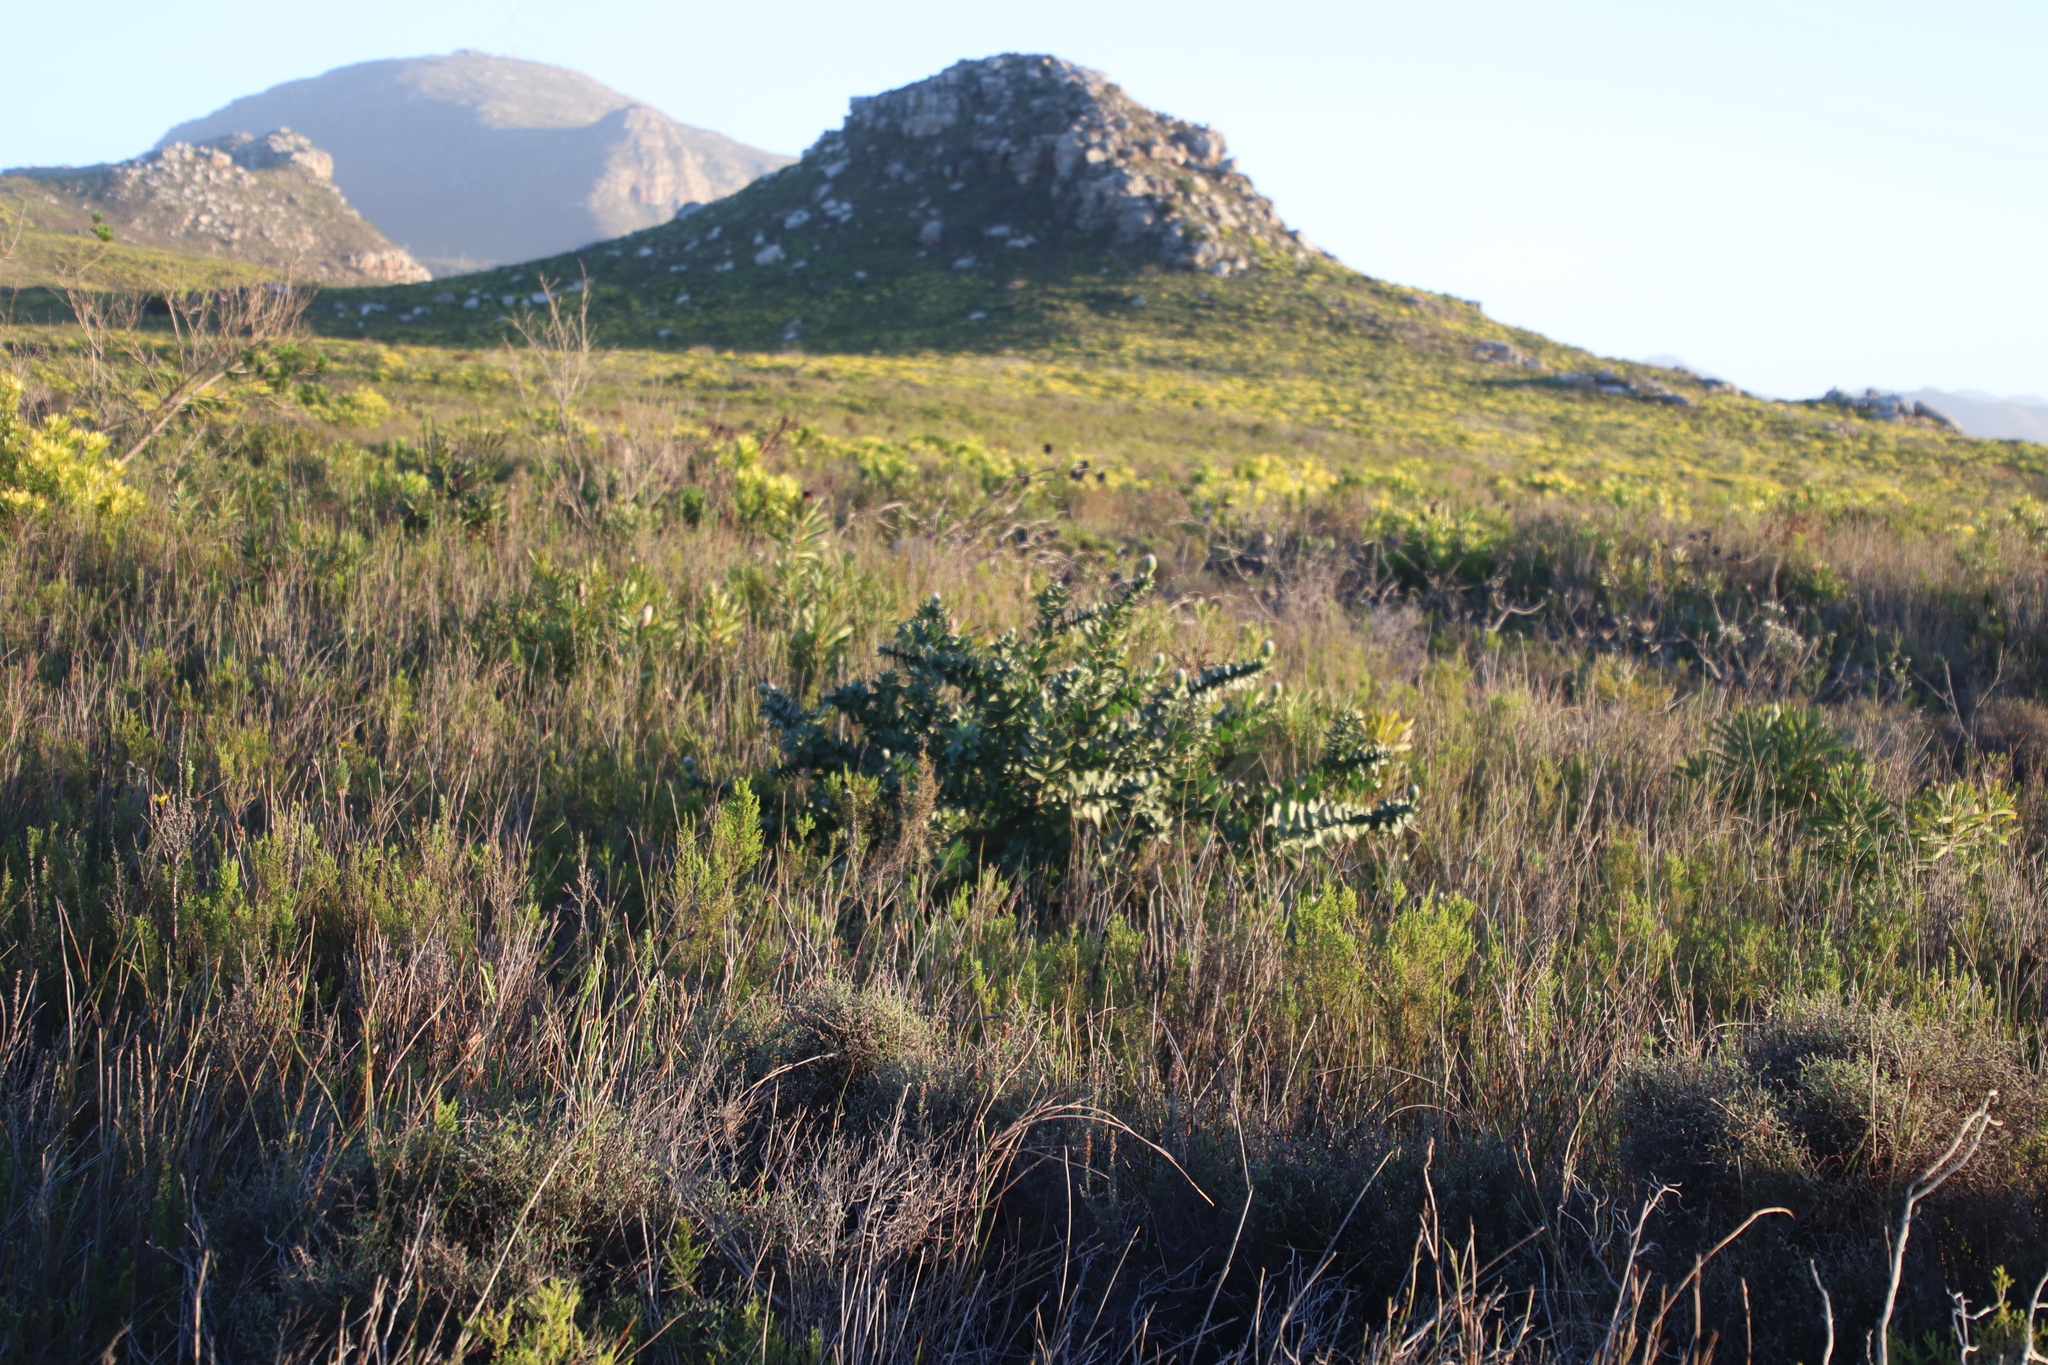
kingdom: Plantae
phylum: Tracheophyta
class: Magnoliopsida
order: Proteales
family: Proteaceae
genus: Leucospermum
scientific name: Leucospermum cordifolium
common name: Red pincushion-protea
